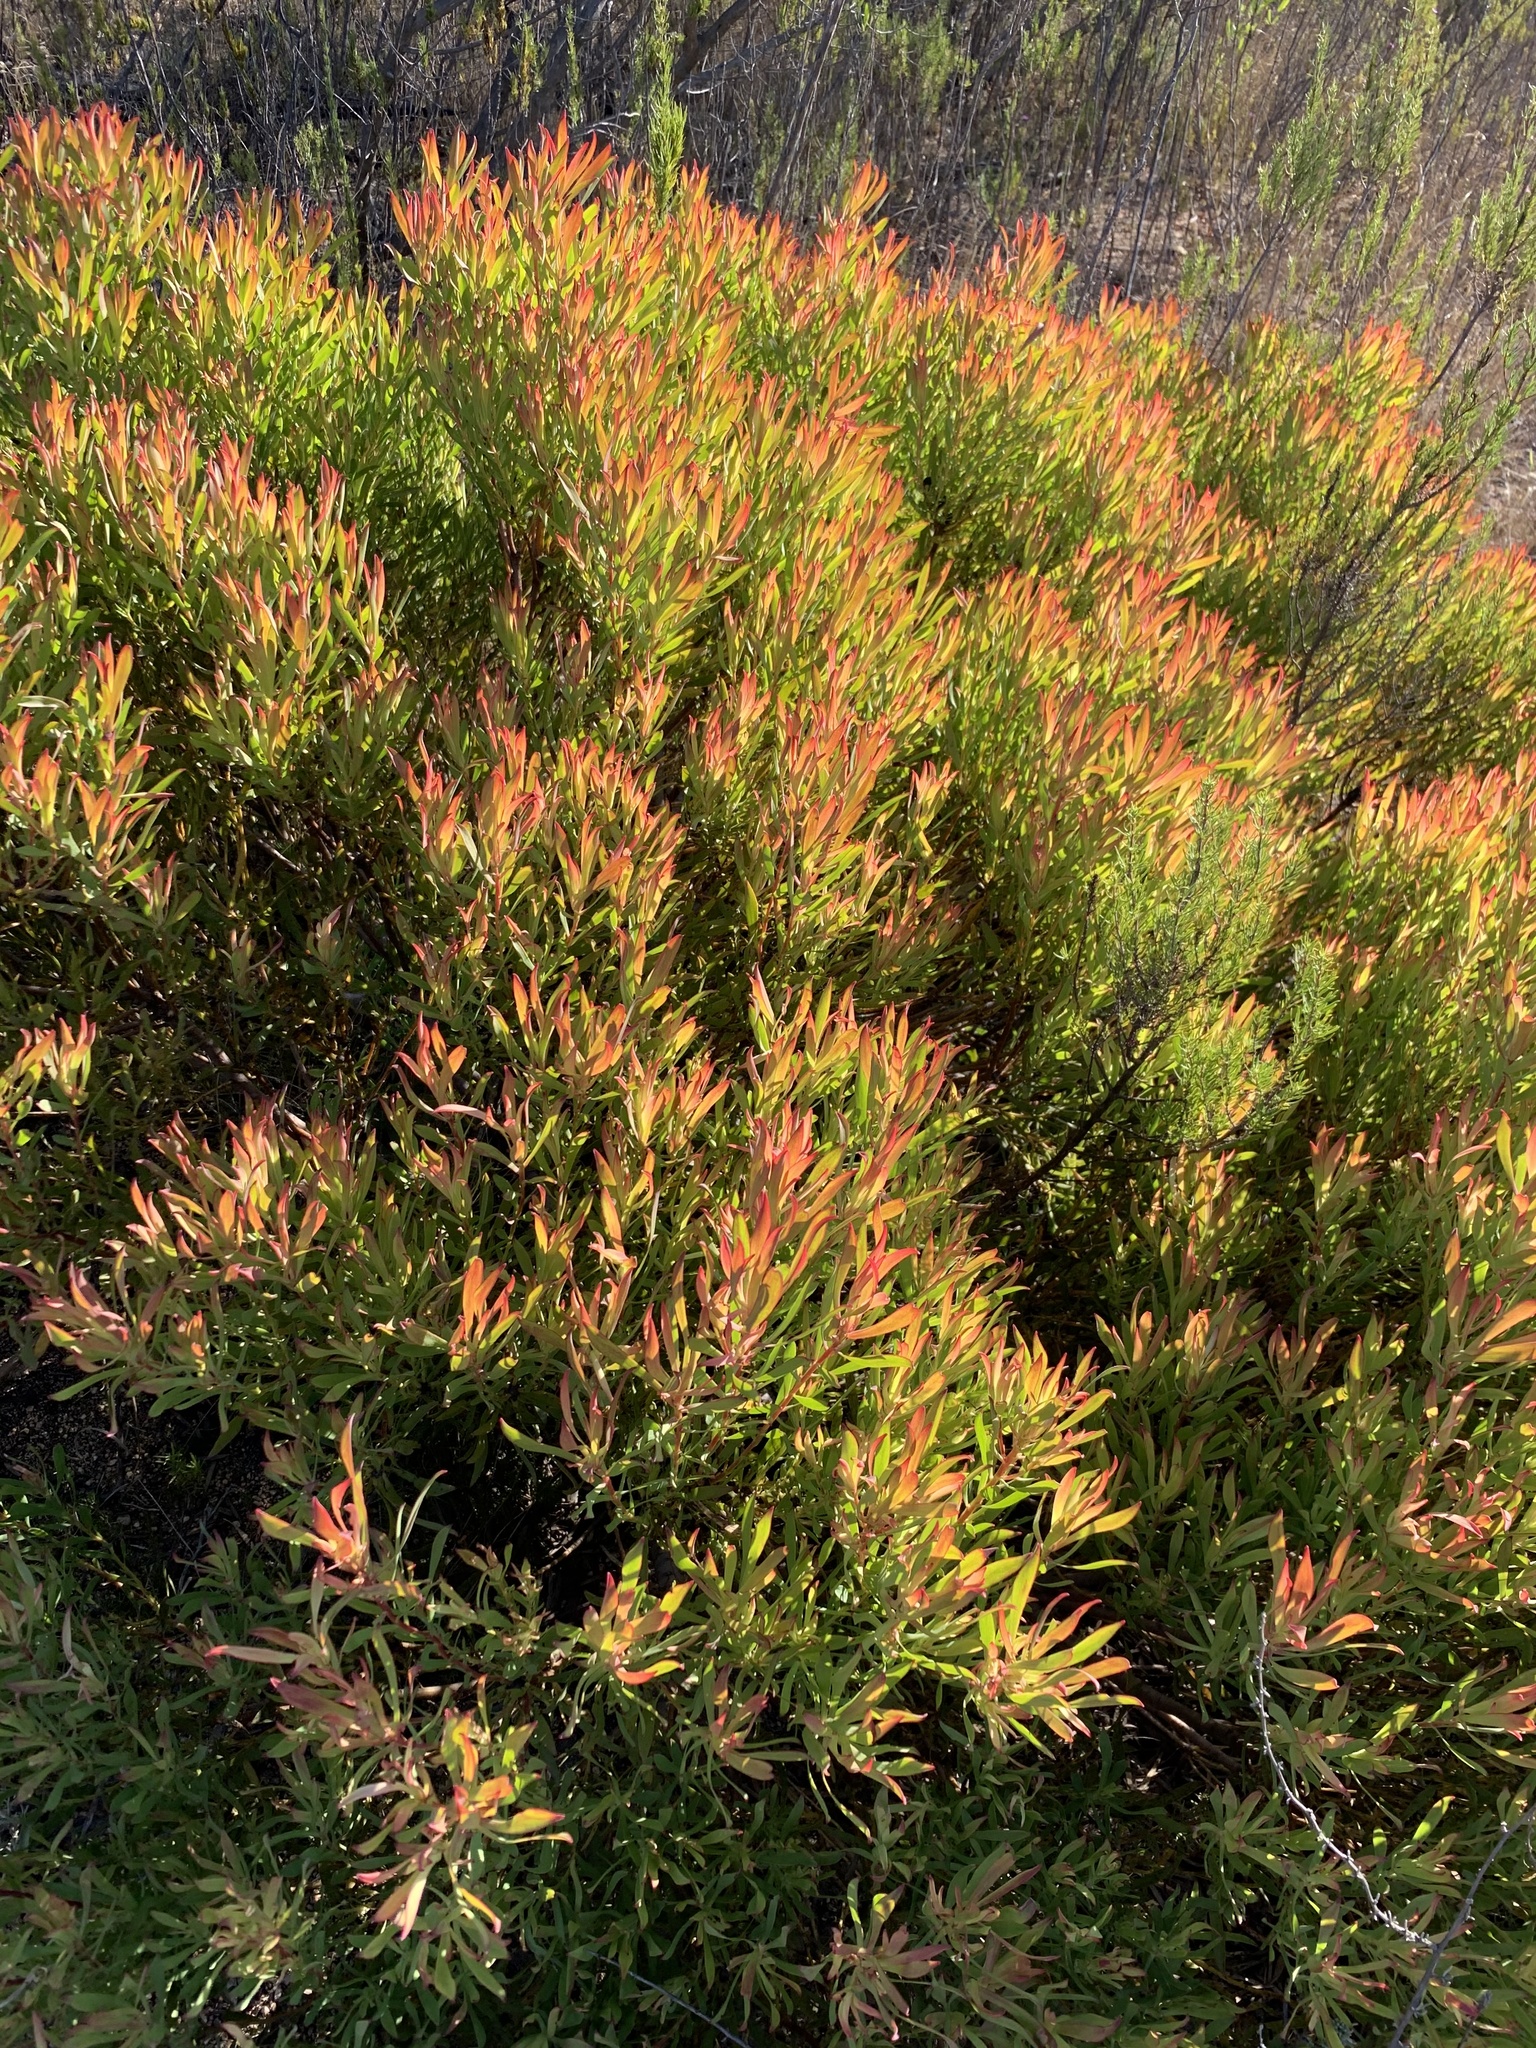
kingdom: Plantae
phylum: Tracheophyta
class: Magnoliopsida
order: Proteales
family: Proteaceae
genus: Leucadendron
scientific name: Leucadendron salignum
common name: Common sunshine conebush
